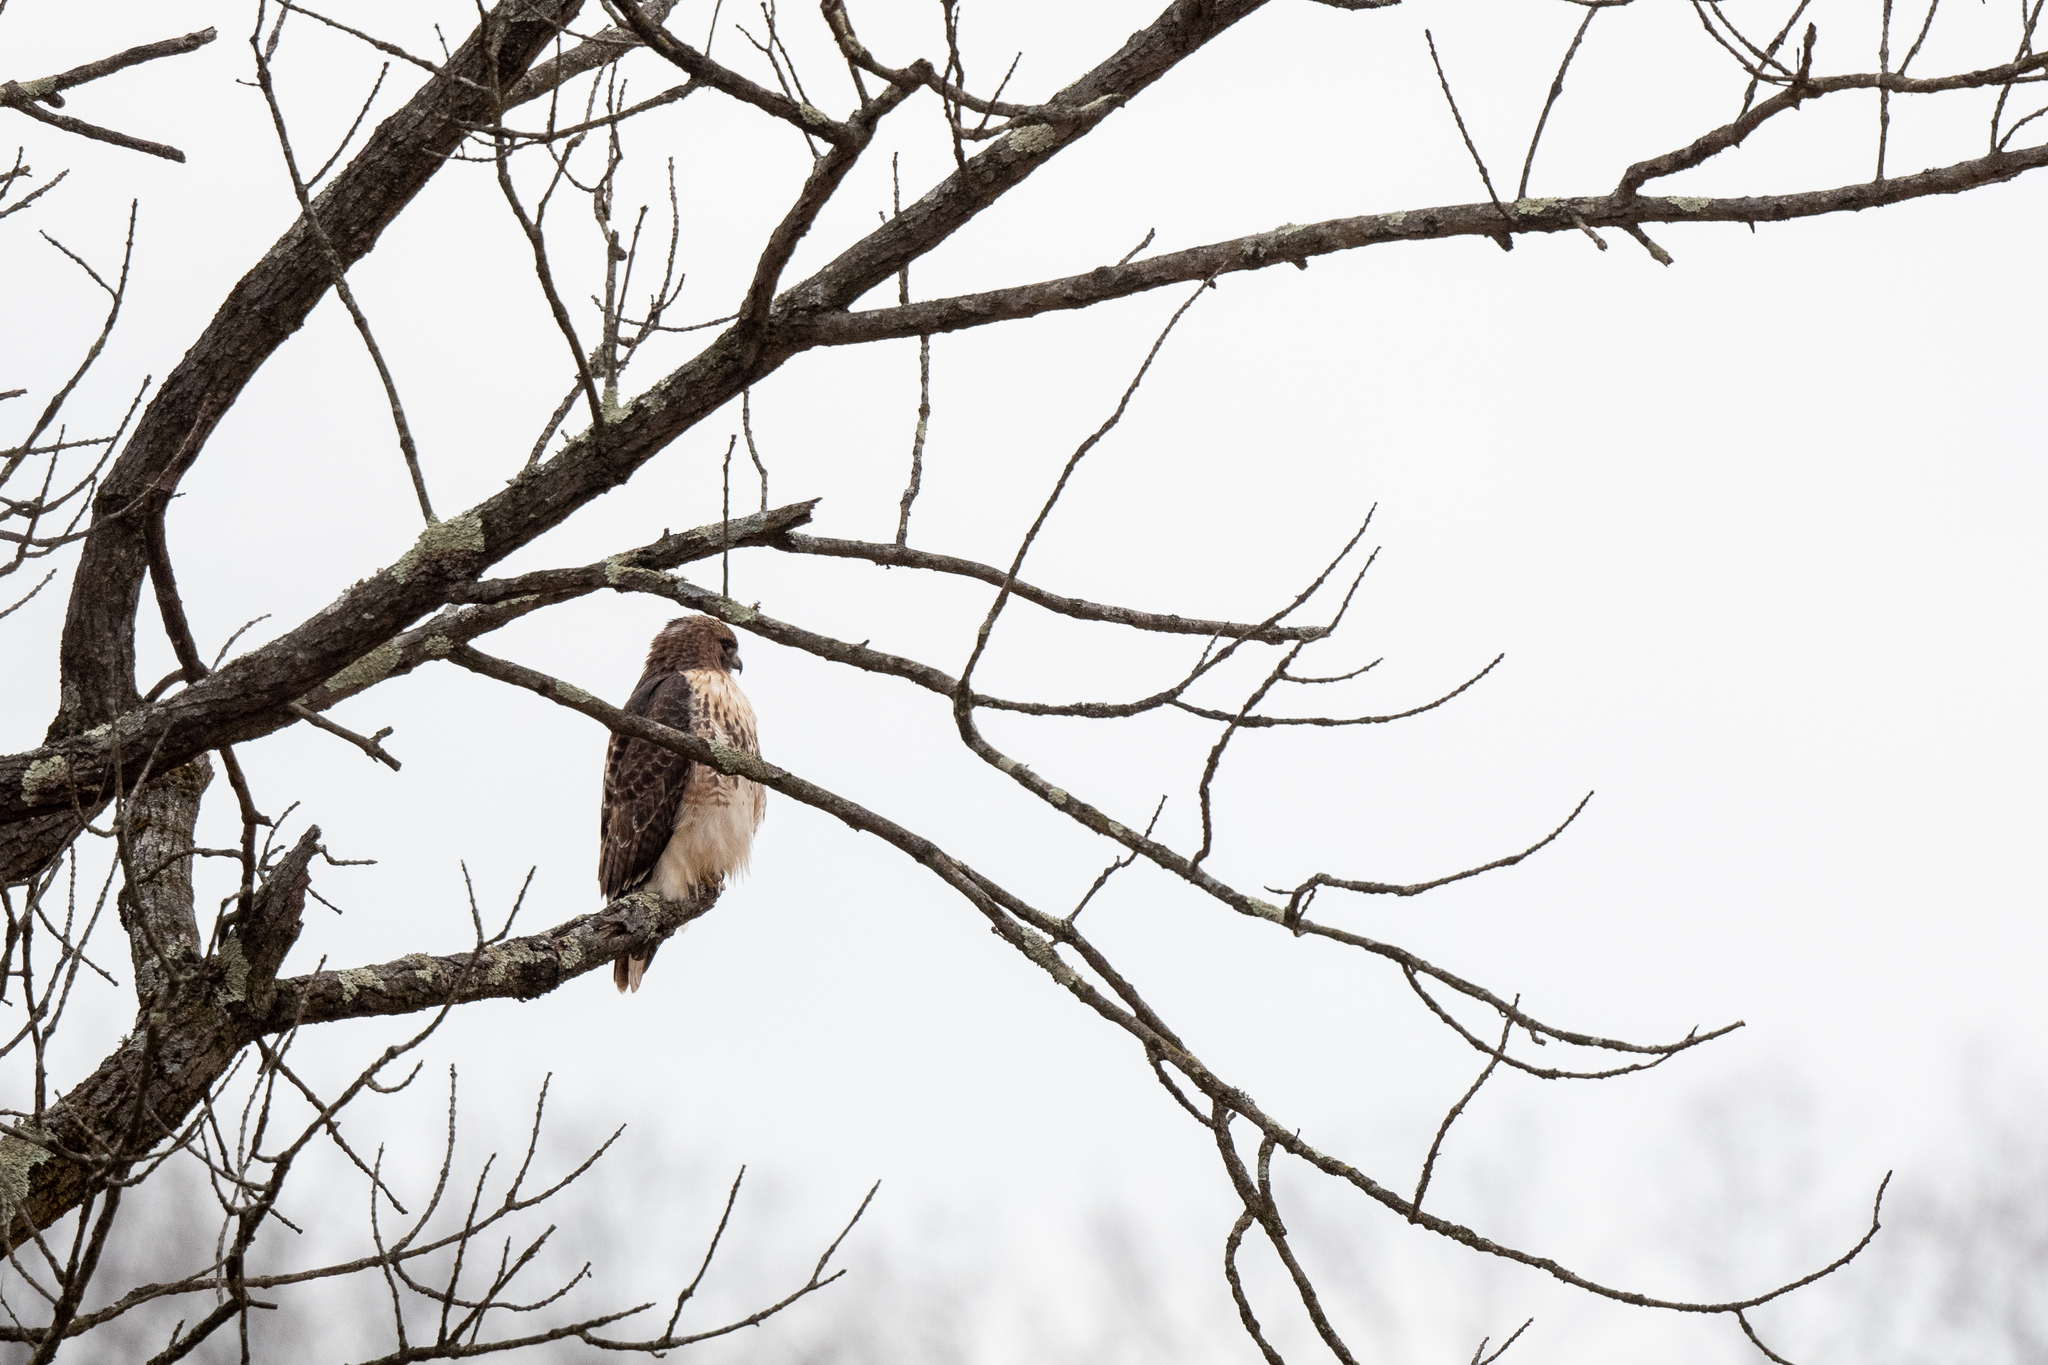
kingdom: Animalia
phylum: Chordata
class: Aves
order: Accipitriformes
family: Accipitridae
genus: Buteo
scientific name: Buteo jamaicensis
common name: Red-tailed hawk
